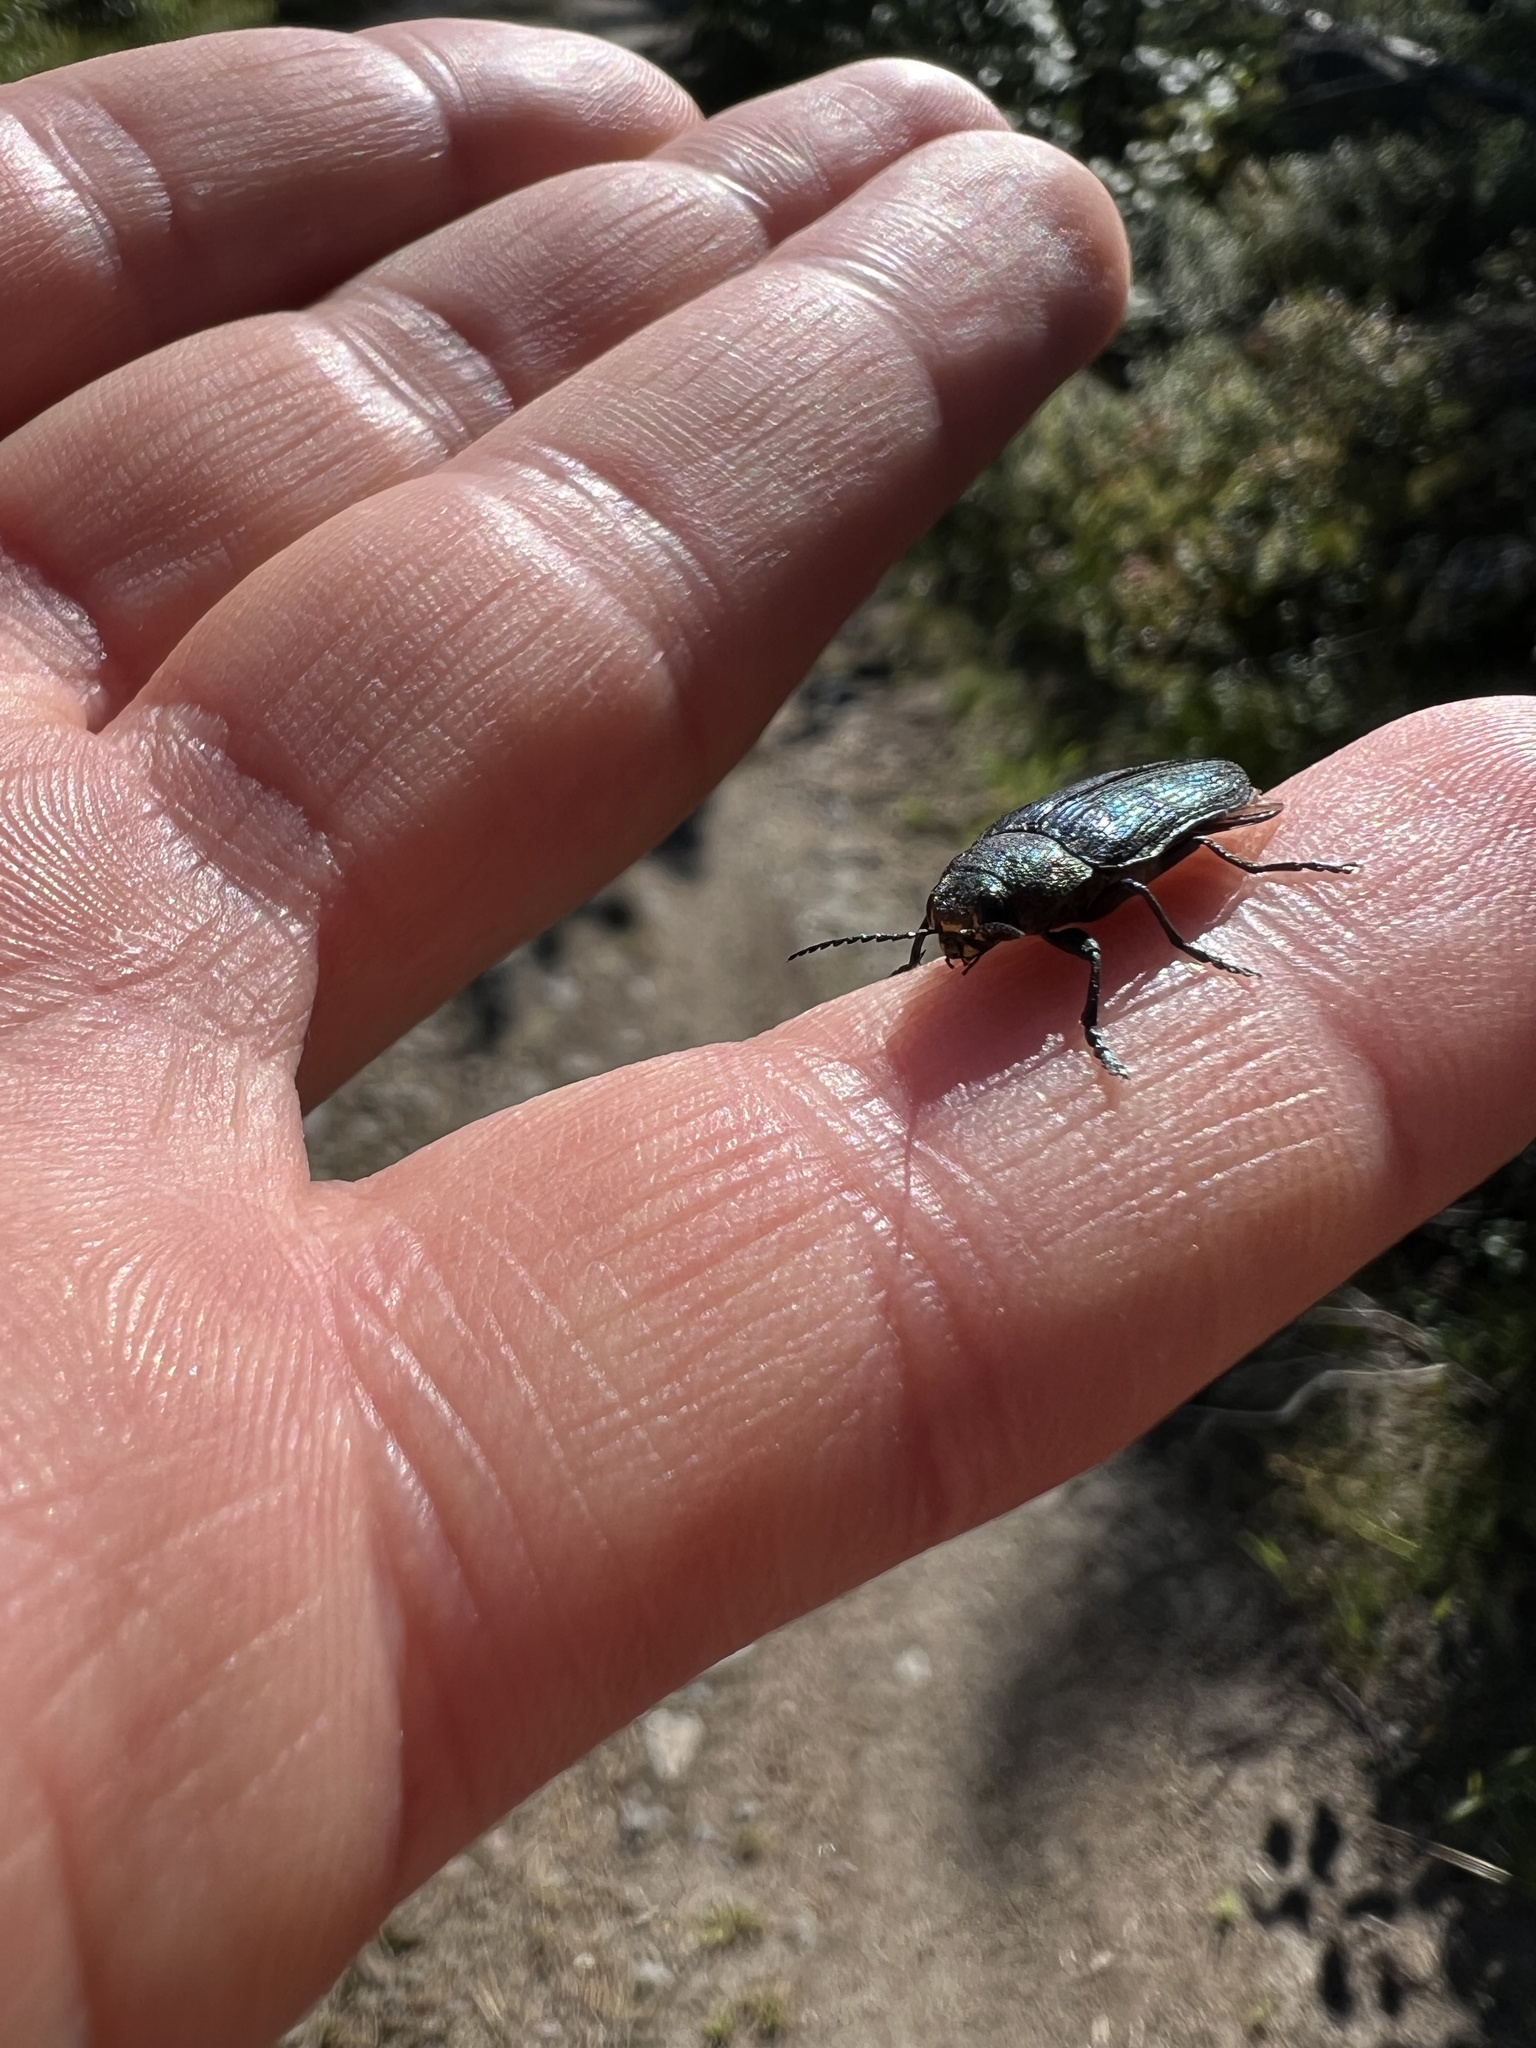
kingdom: Animalia
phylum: Arthropoda
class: Insecta
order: Coleoptera
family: Buprestidae
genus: Buprestis
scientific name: Buprestis rustica
